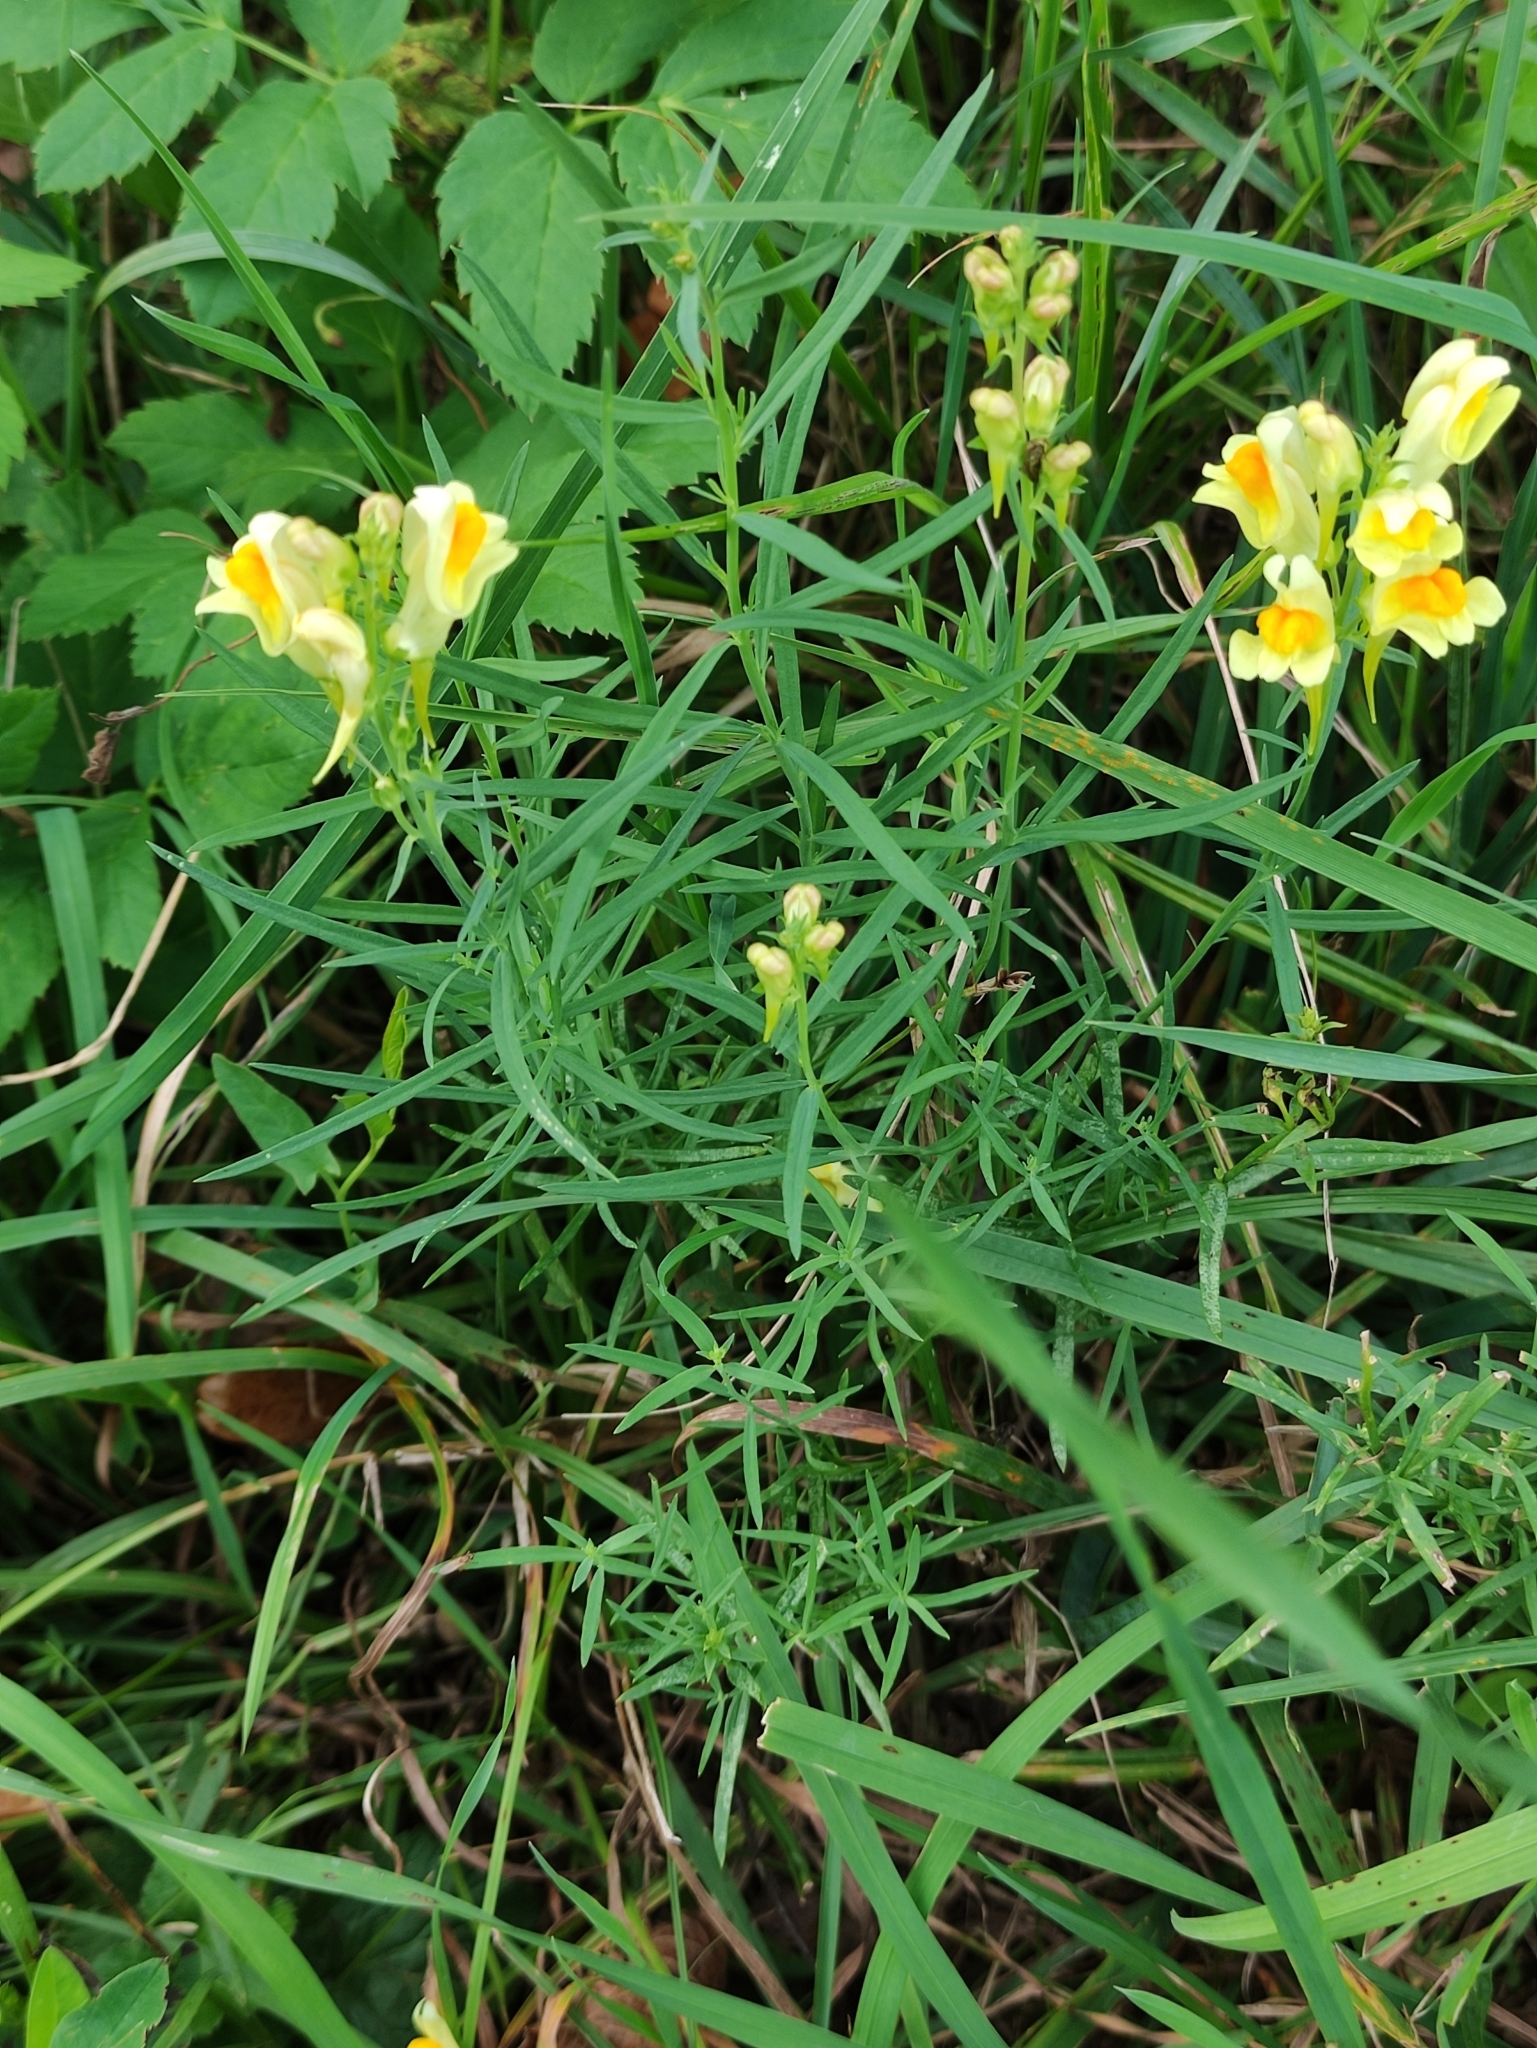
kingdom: Plantae
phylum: Tracheophyta
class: Magnoliopsida
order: Lamiales
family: Plantaginaceae
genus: Linaria
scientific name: Linaria vulgaris
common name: Butter and eggs
